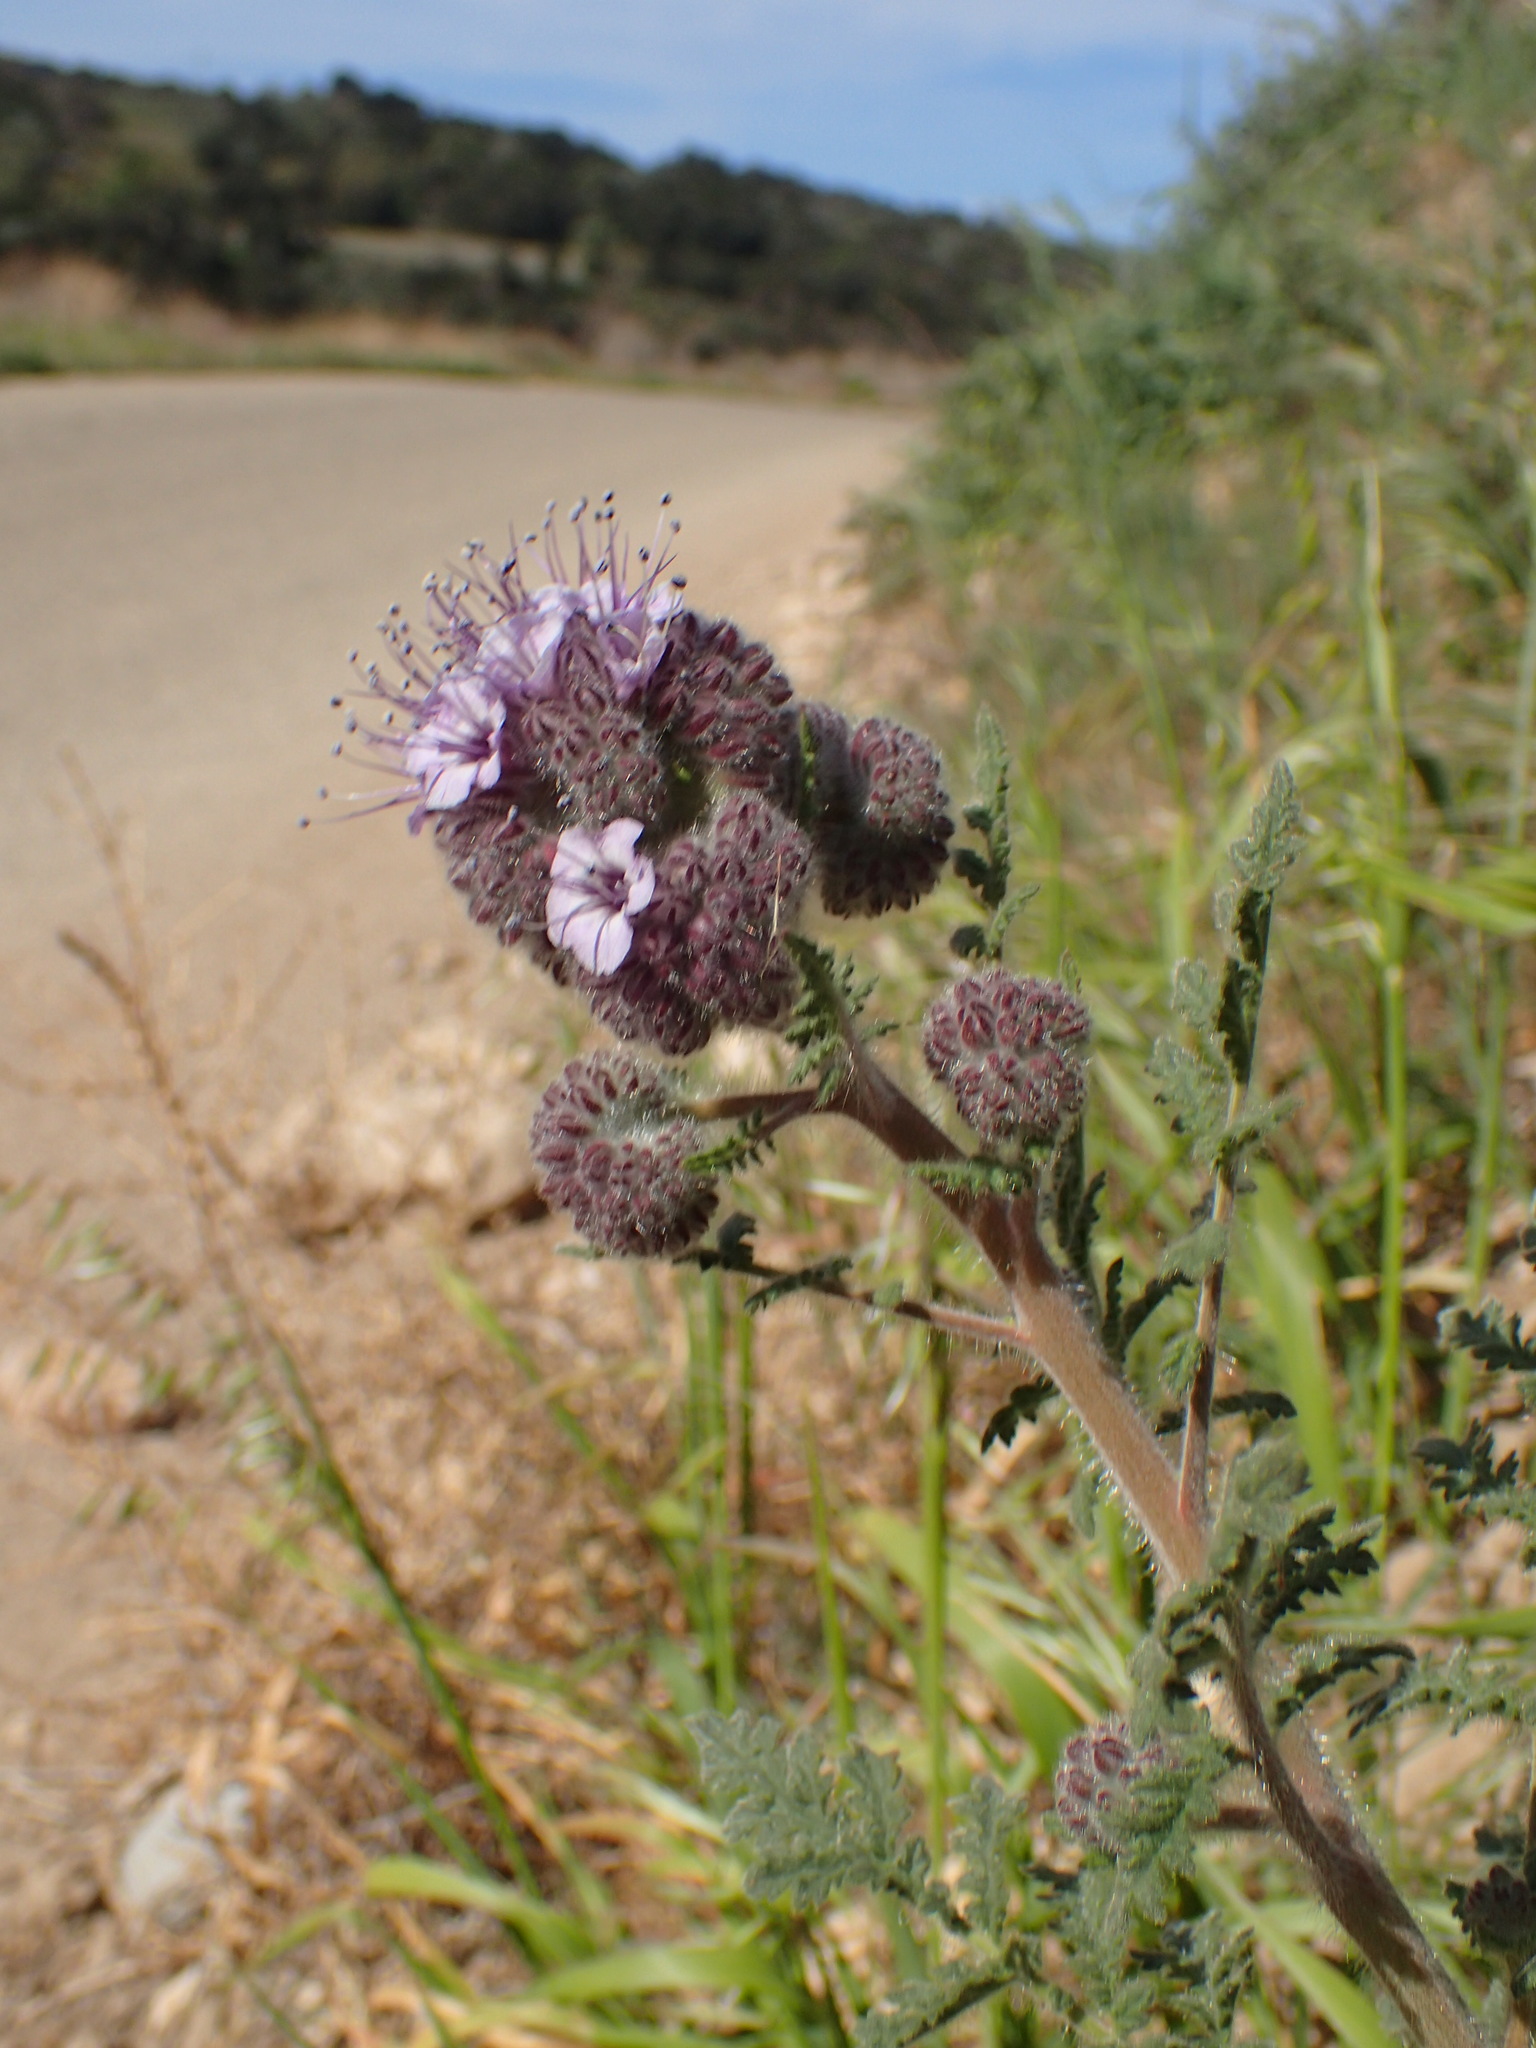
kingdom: Plantae
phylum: Tracheophyta
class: Magnoliopsida
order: Boraginales
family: Hydrophyllaceae
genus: Phacelia
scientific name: Phacelia hubbyi
